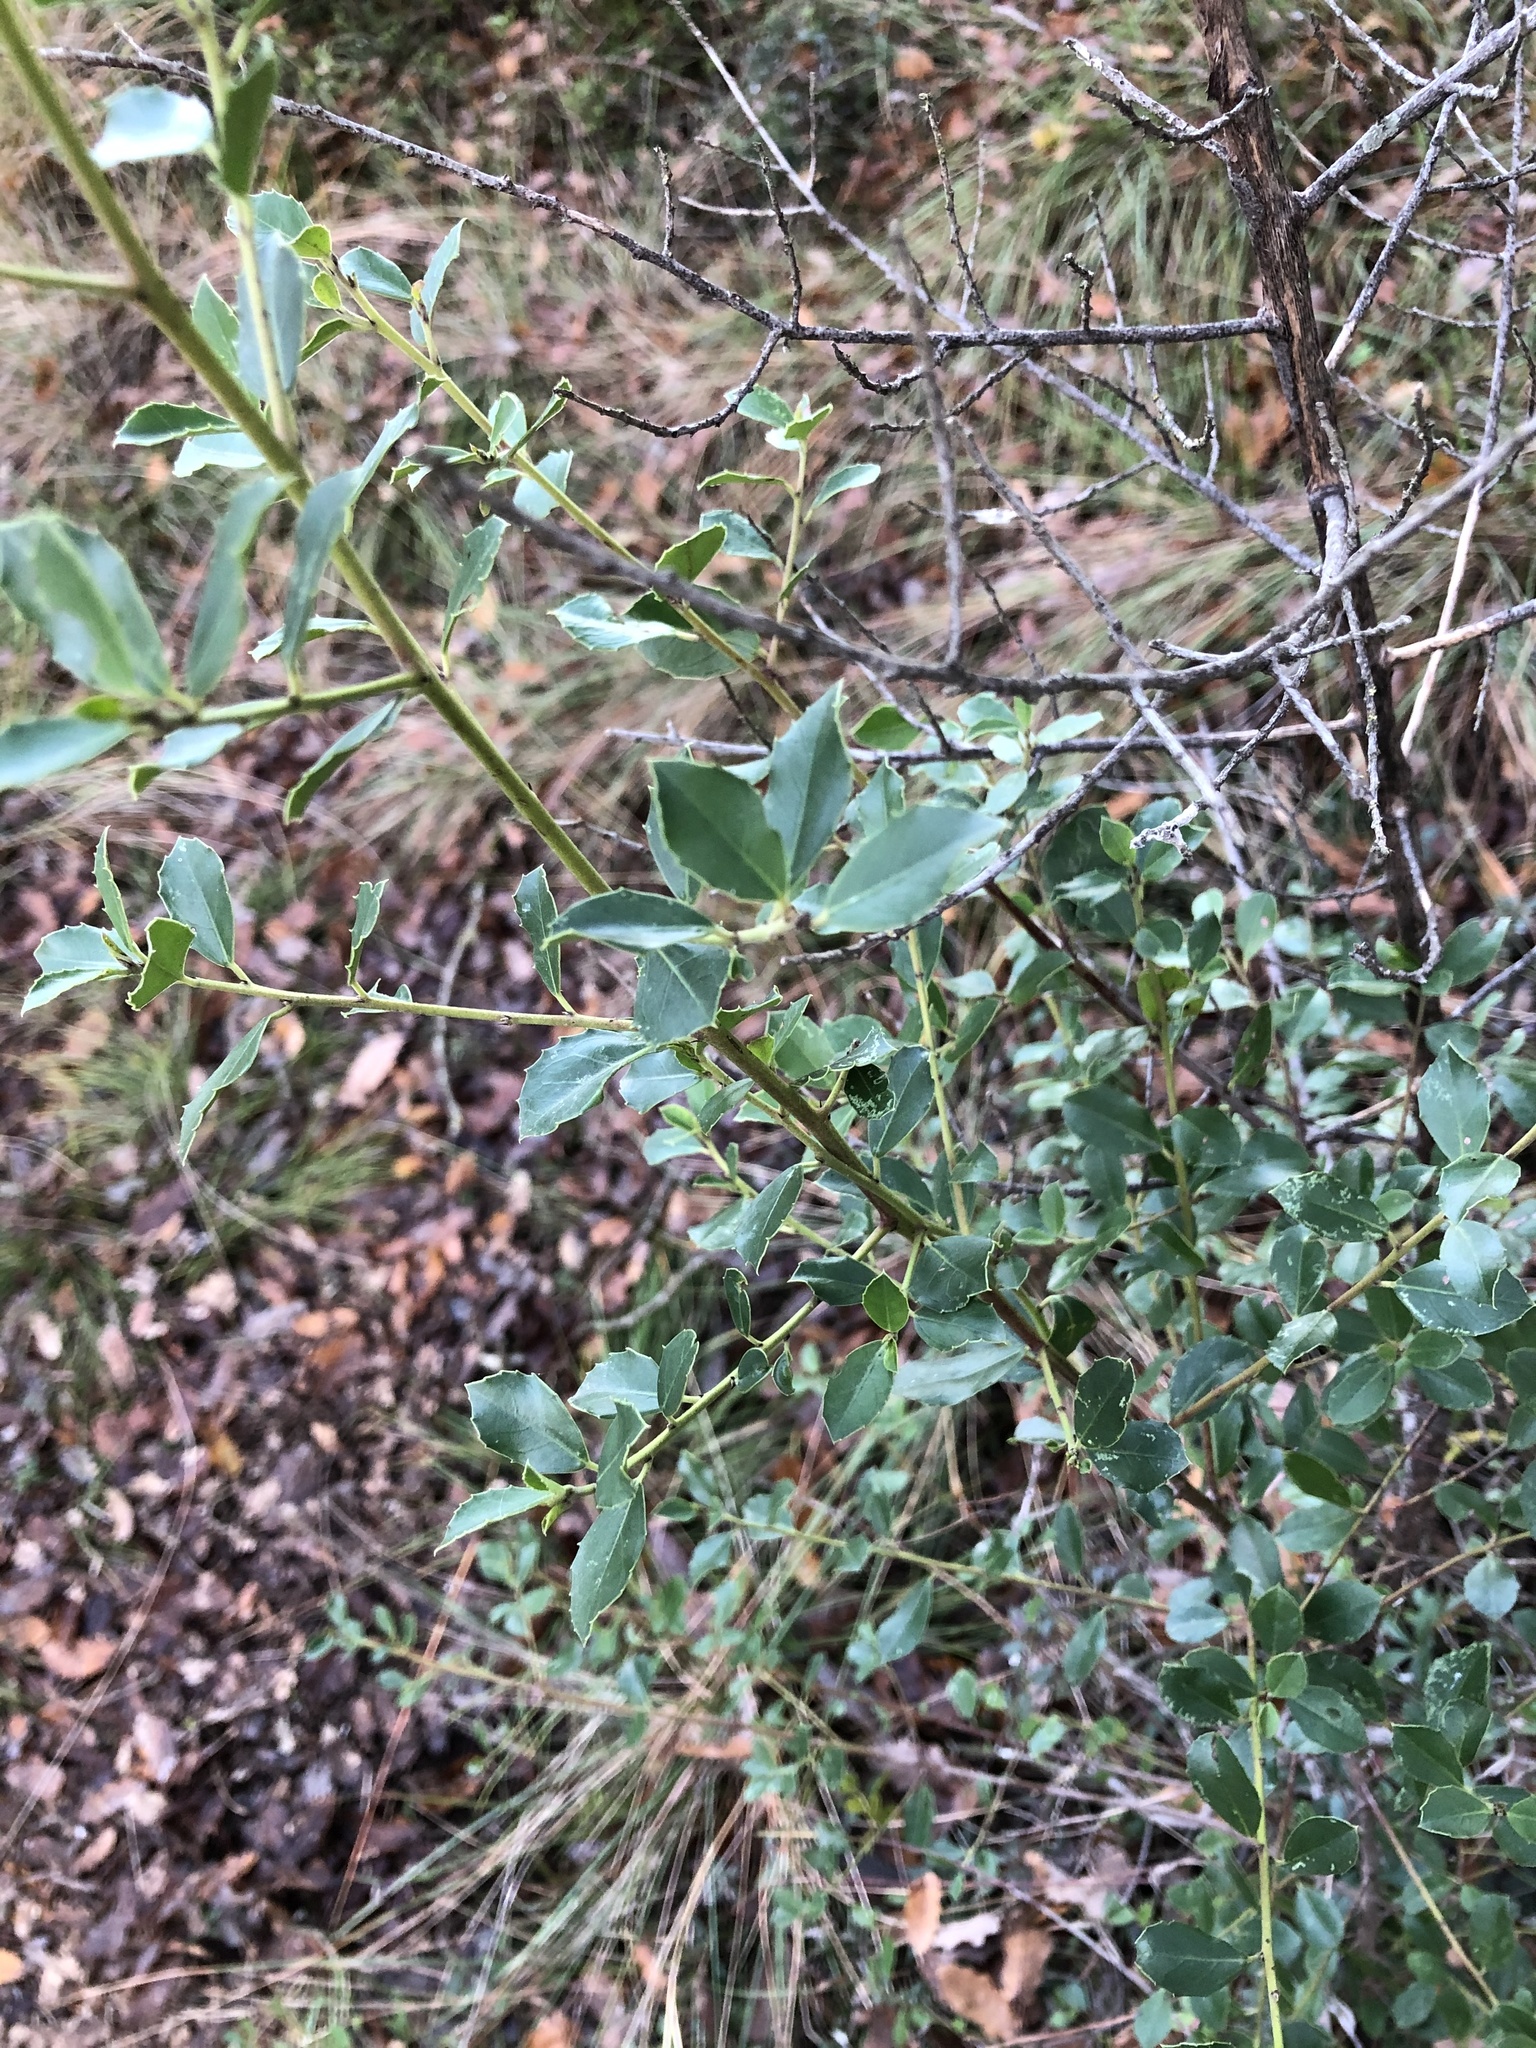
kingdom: Plantae
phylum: Tracheophyta
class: Magnoliopsida
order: Rosales
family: Rhamnaceae
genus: Rhamnus
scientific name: Rhamnus alaternus
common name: Mediterranean buckthorn
